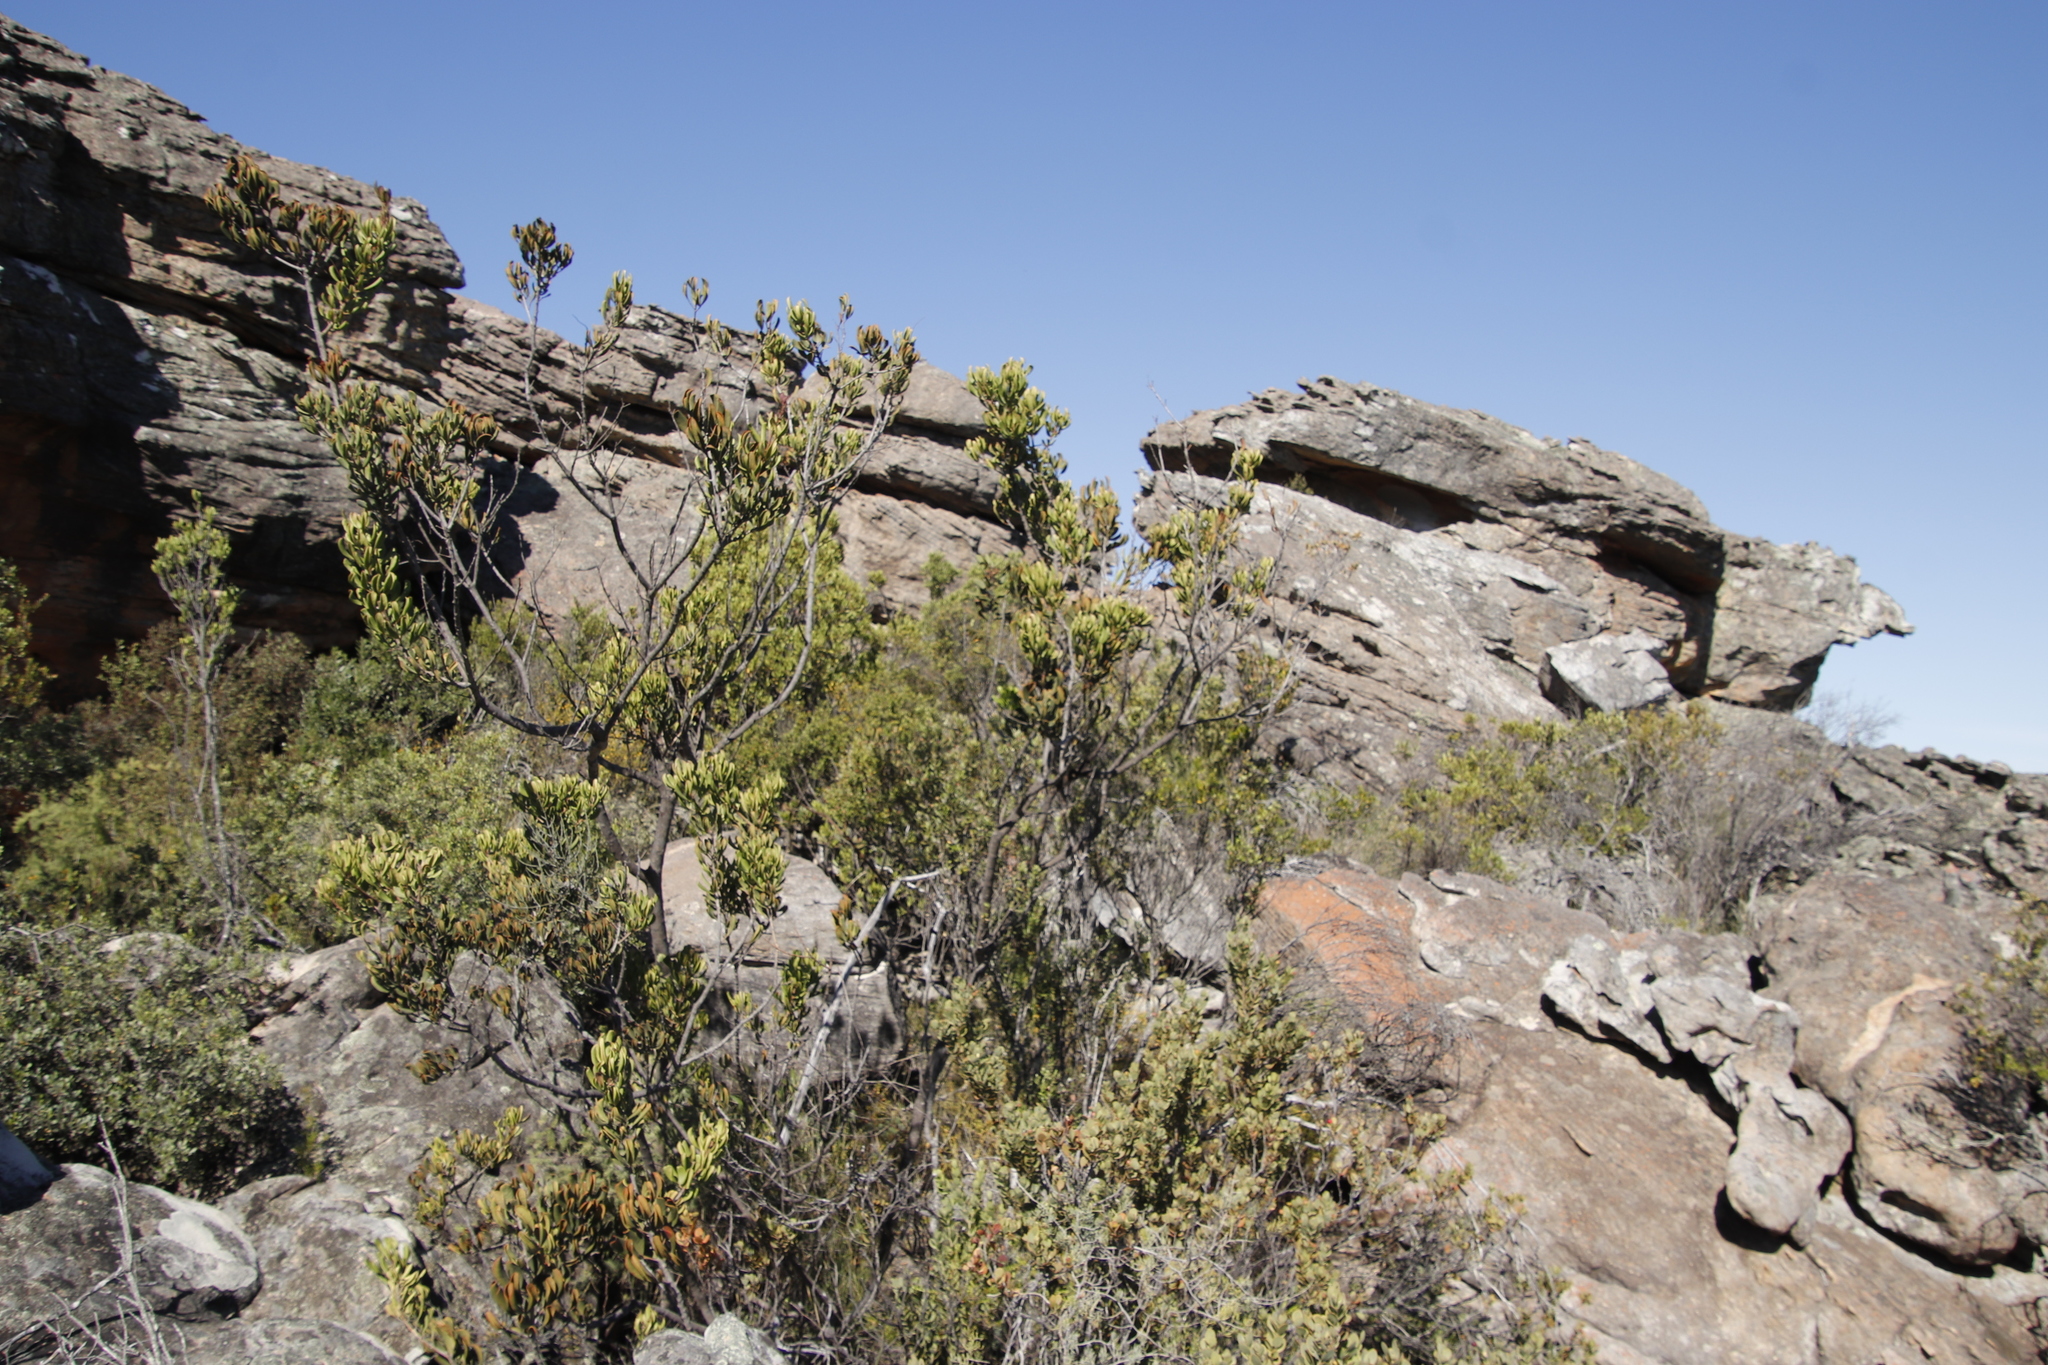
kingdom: Plantae
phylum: Tracheophyta
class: Magnoliopsida
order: Sapindales
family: Anacardiaceae
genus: Searsia
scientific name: Searsia scytophylla
